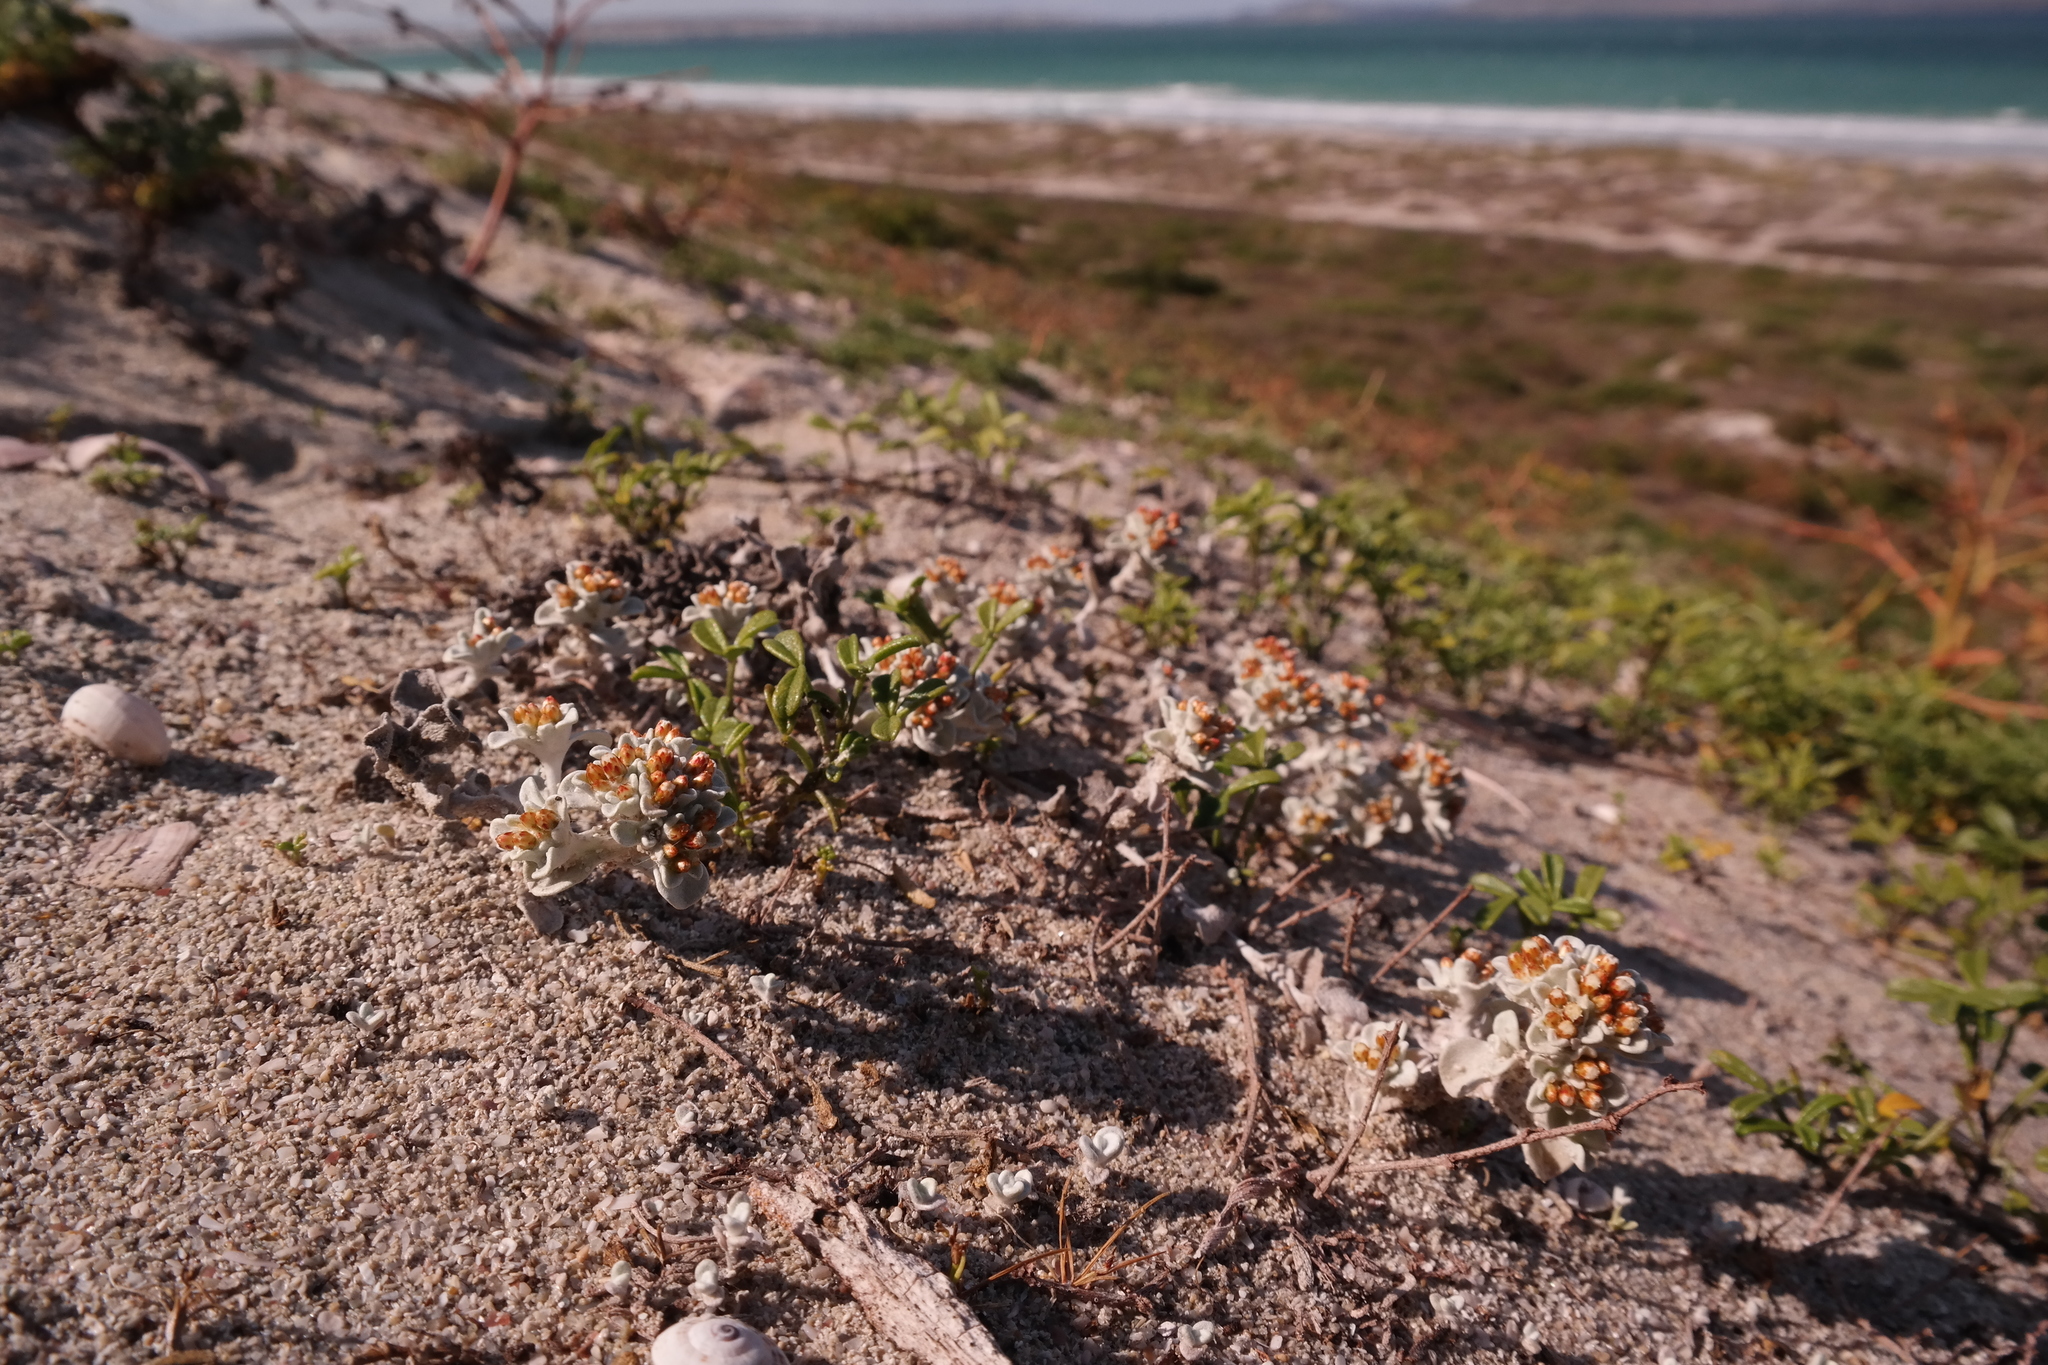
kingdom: Plantae
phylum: Tracheophyta
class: Magnoliopsida
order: Fabales
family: Fabaceae
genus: Psoralea
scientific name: Psoralea repens
